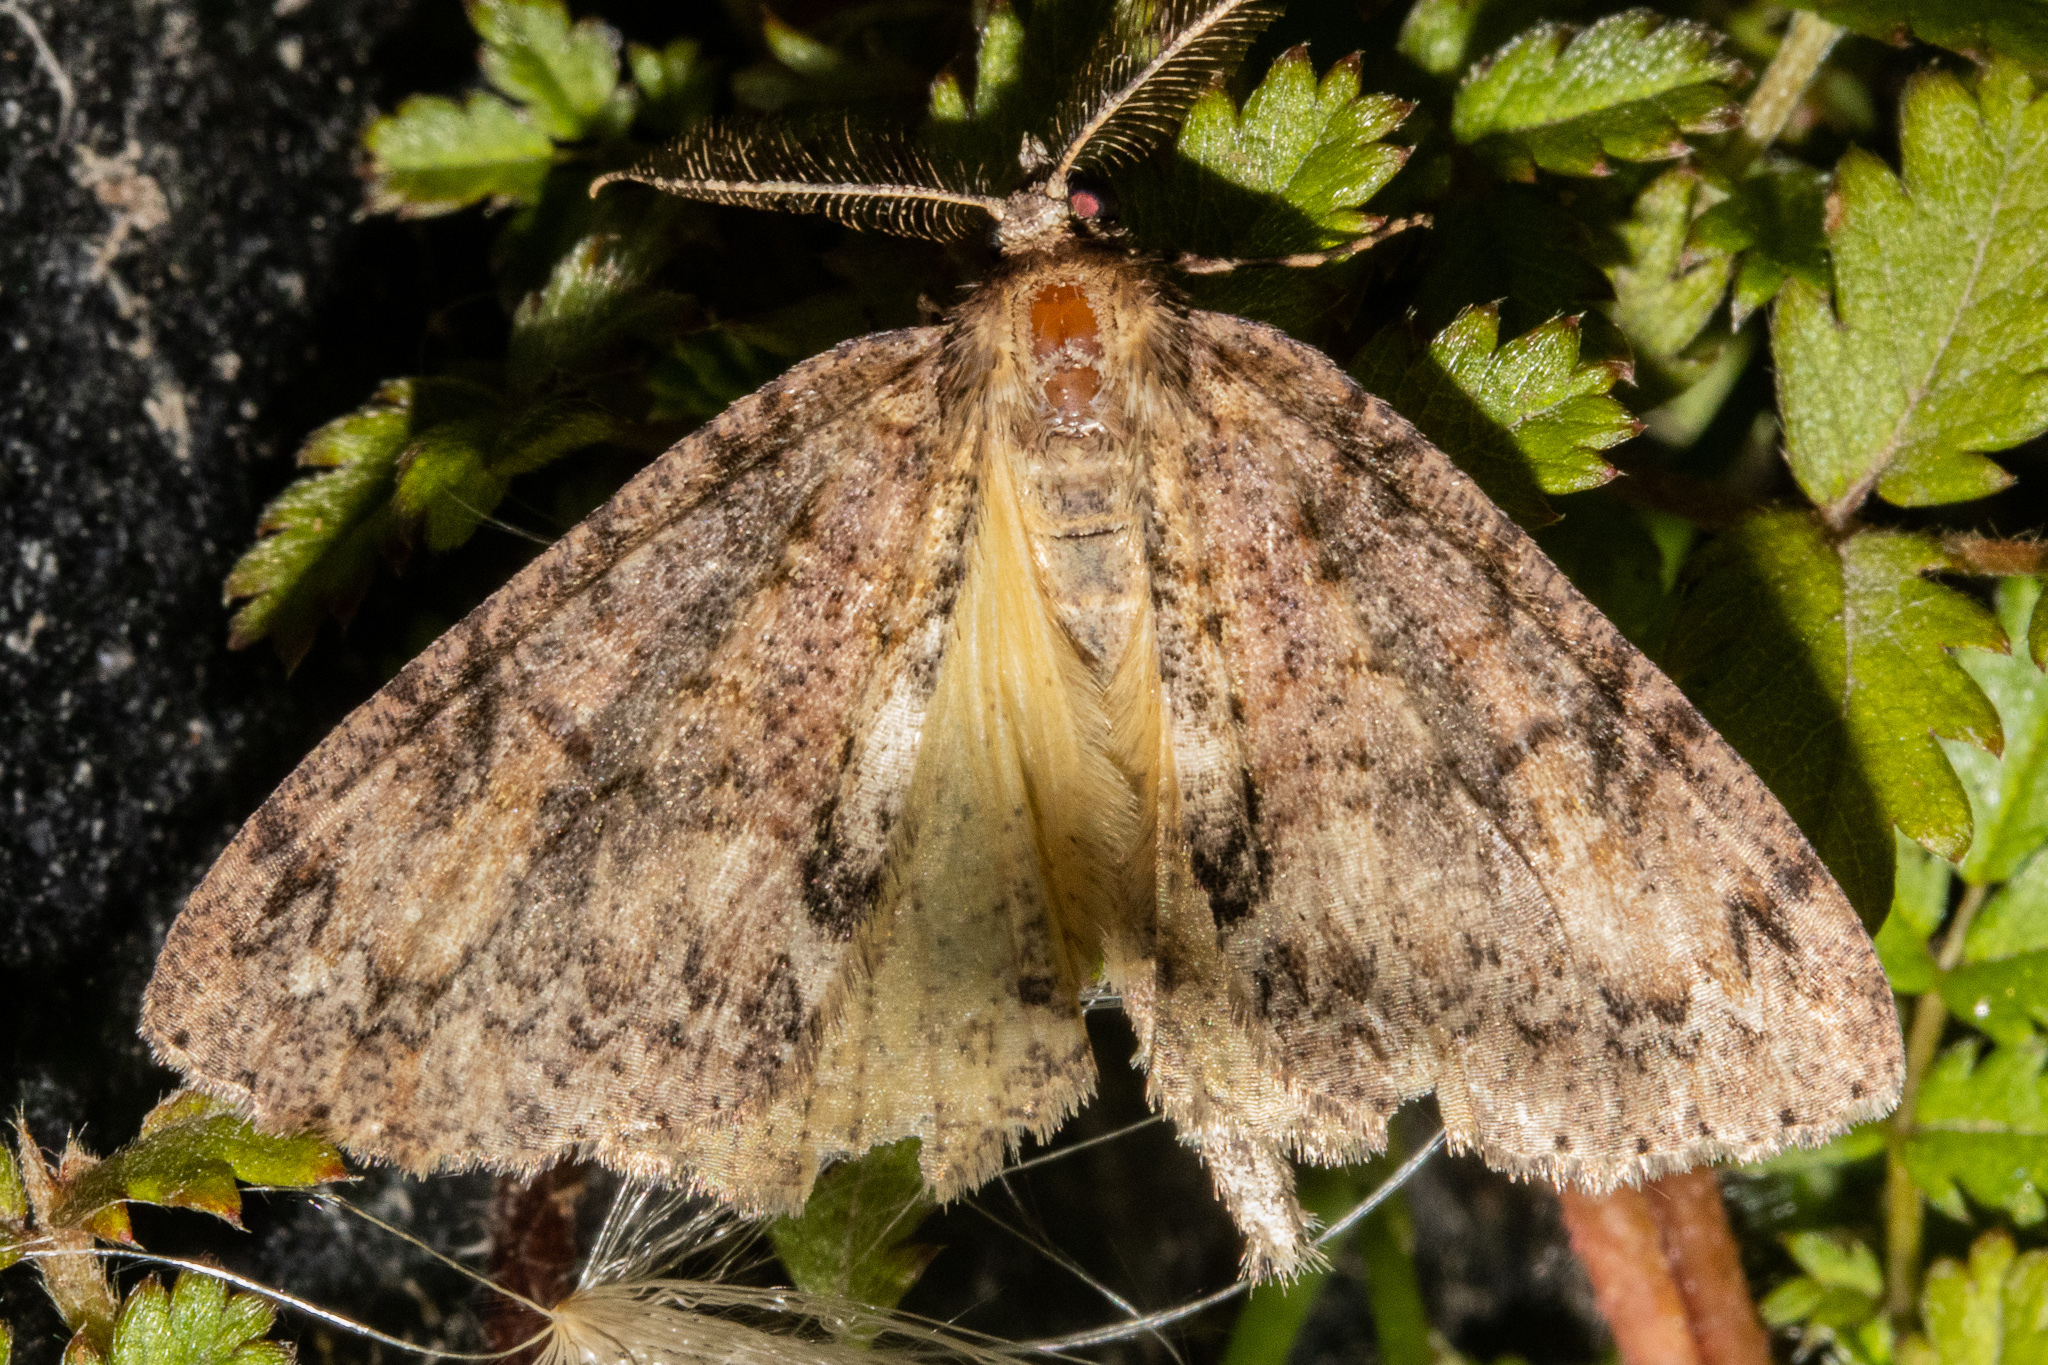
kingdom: Animalia
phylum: Arthropoda
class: Insecta
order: Lepidoptera
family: Geometridae
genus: Pseudocoremia
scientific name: Pseudocoremia suavis
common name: Common forest looper
